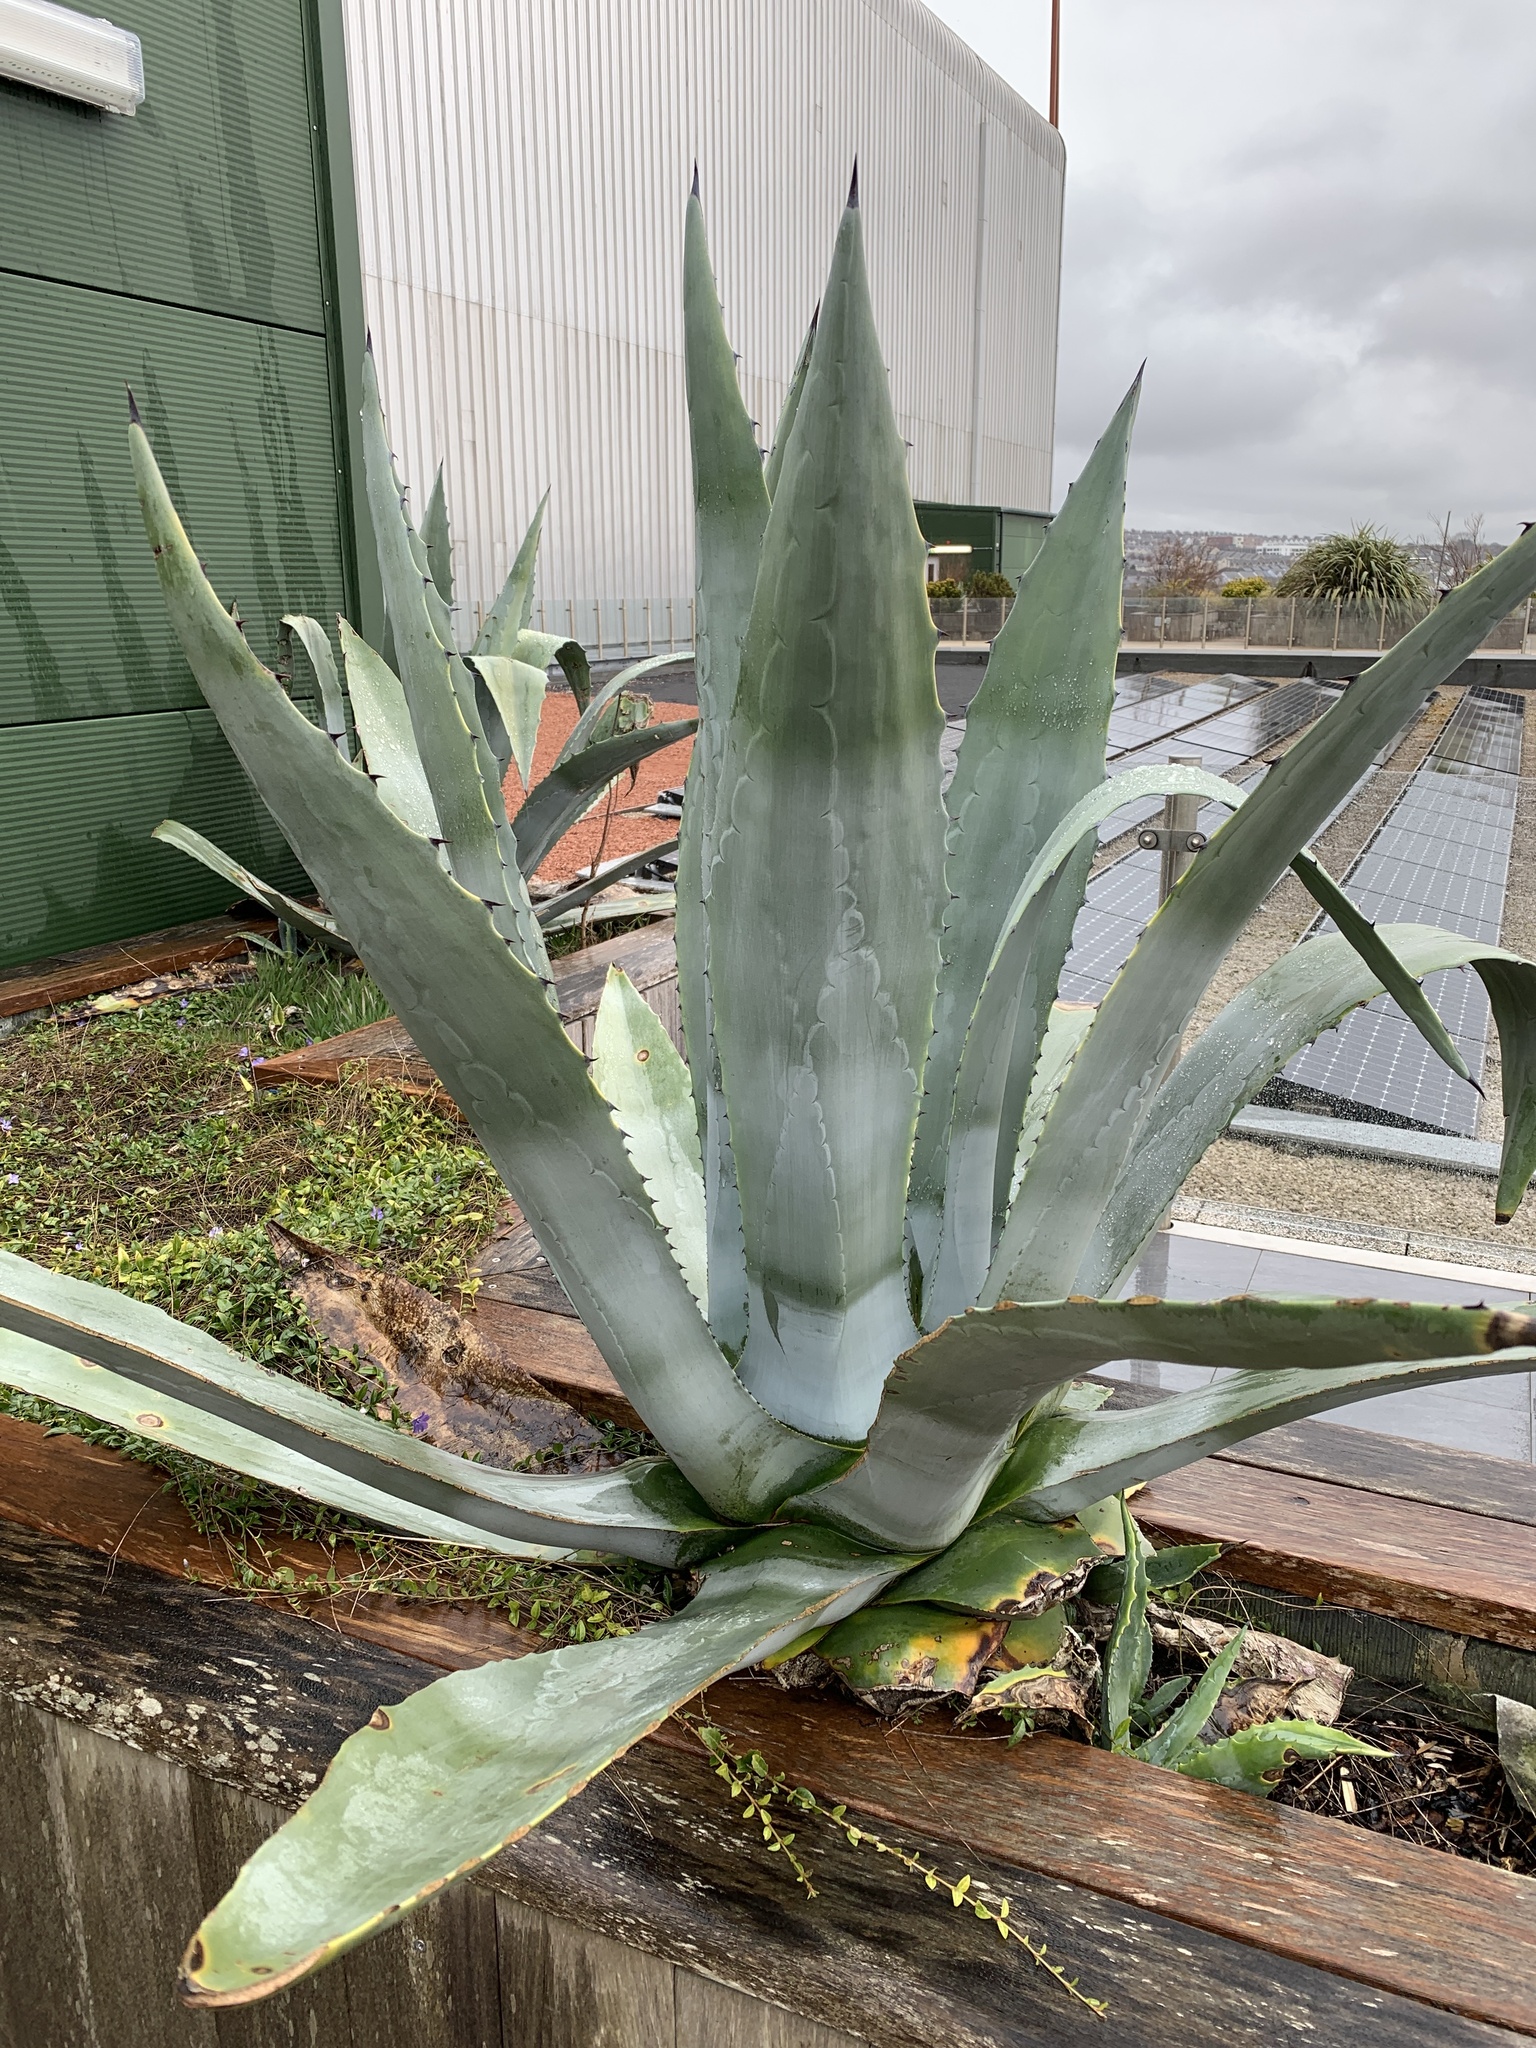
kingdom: Plantae
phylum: Tracheophyta
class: Liliopsida
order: Asparagales
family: Asparagaceae
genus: Agave
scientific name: Agave americana
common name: Centuryplant
